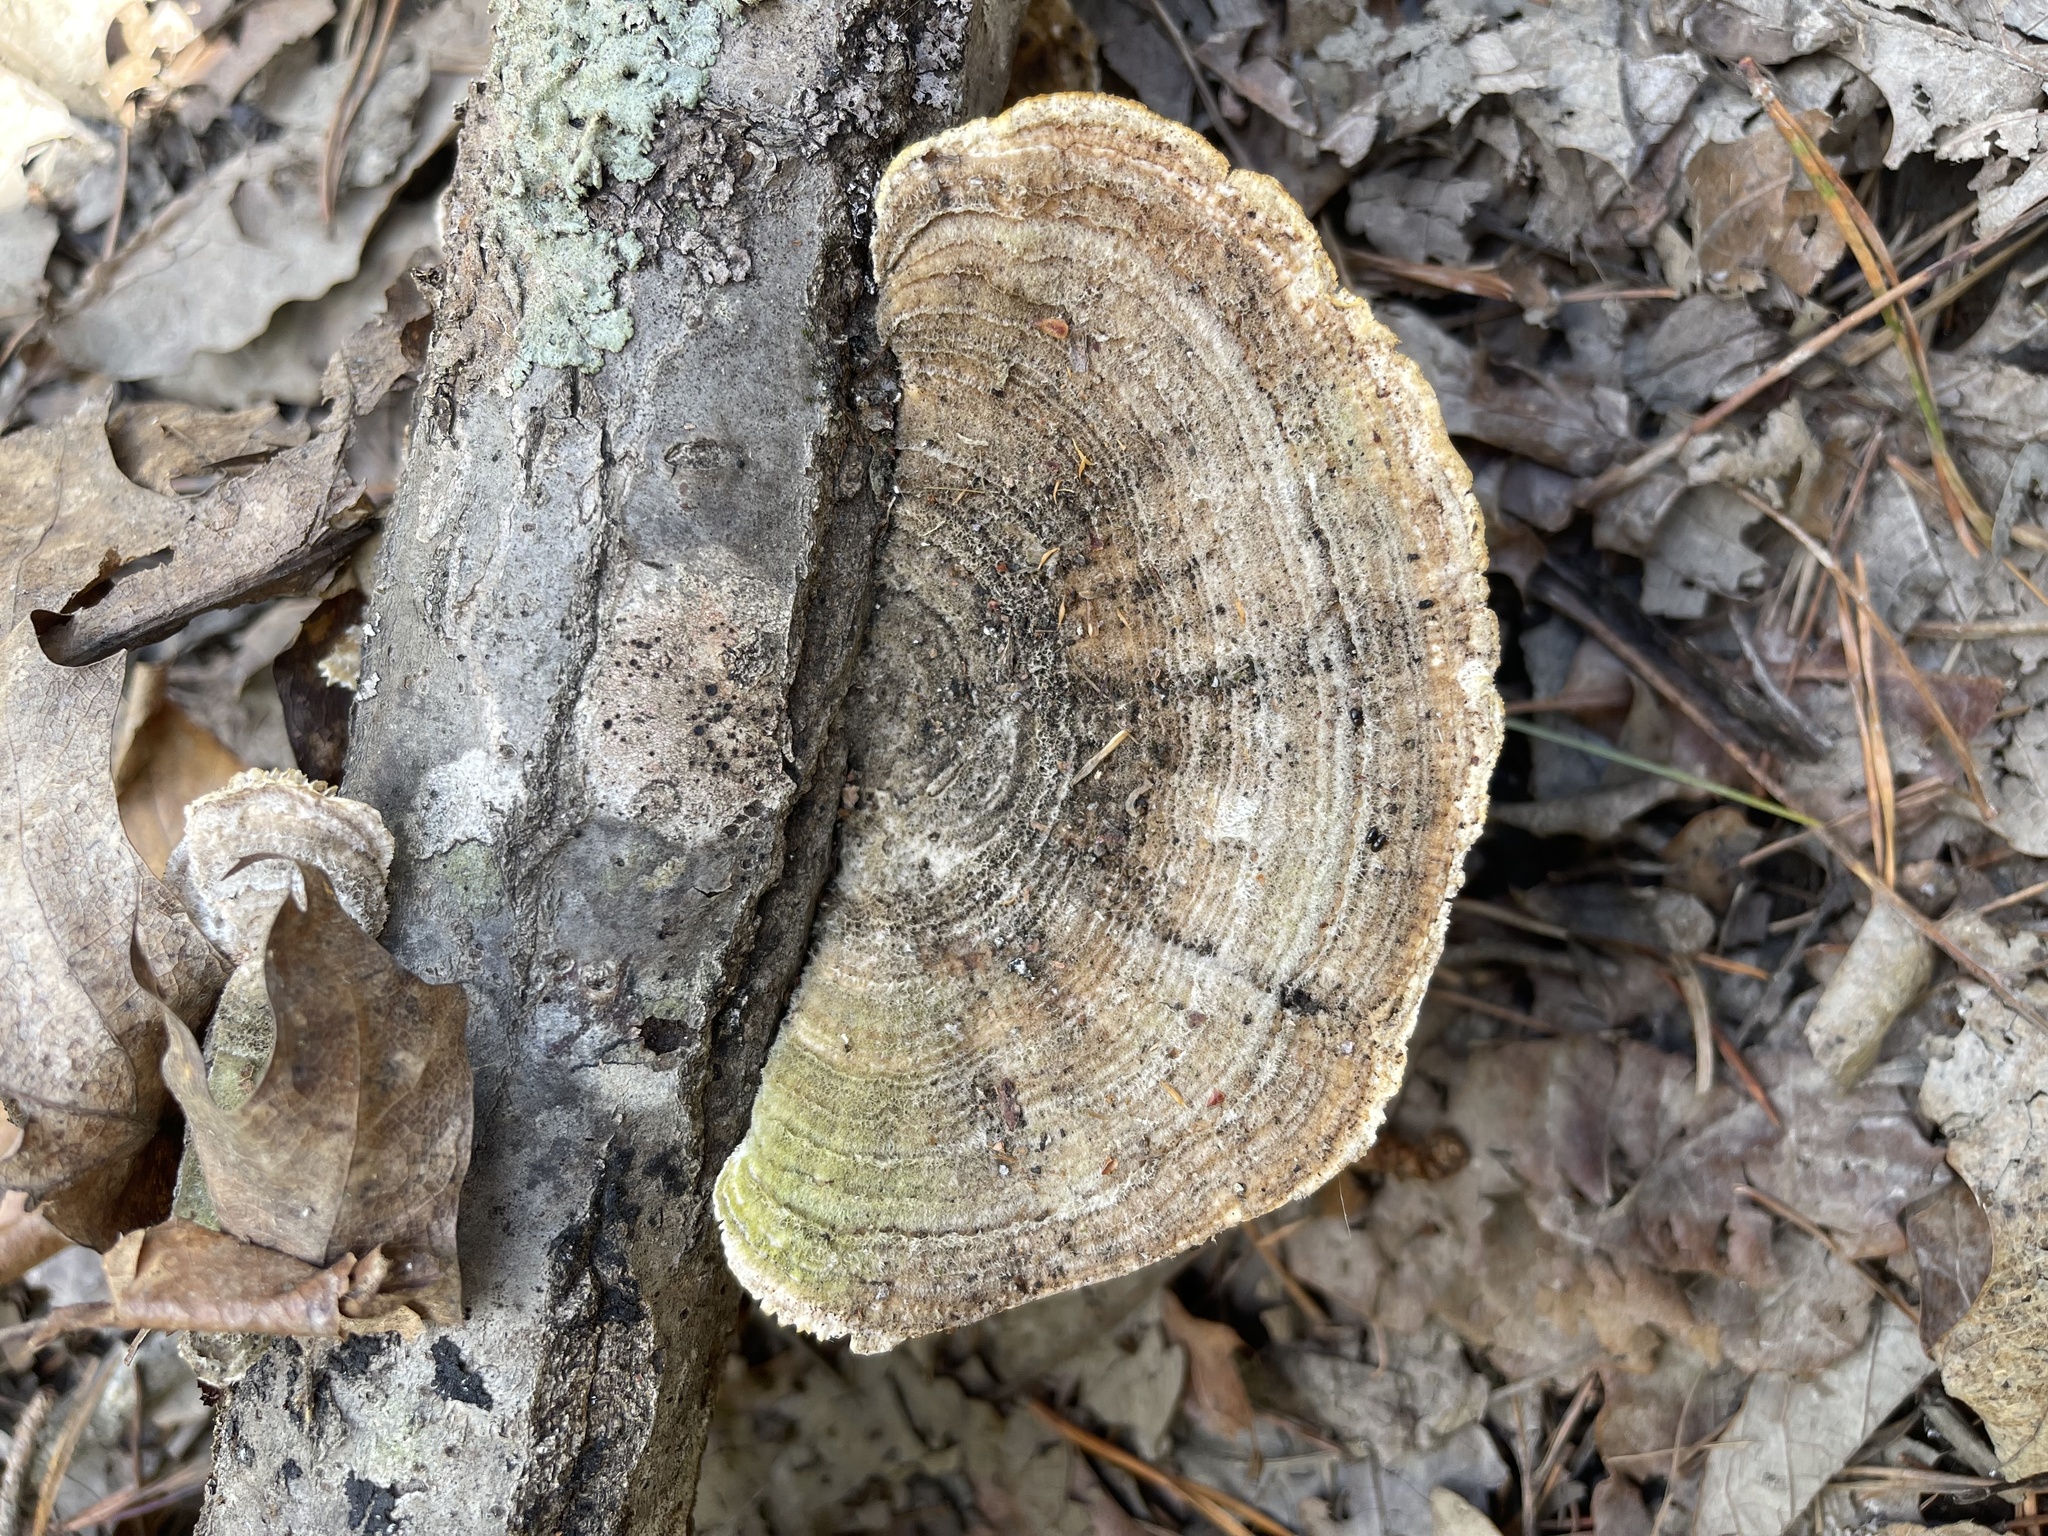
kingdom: Fungi
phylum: Basidiomycota
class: Agaricomycetes
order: Polyporales
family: Polyporaceae
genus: Lenzites
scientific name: Lenzites betulinus
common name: Birch mazegill
